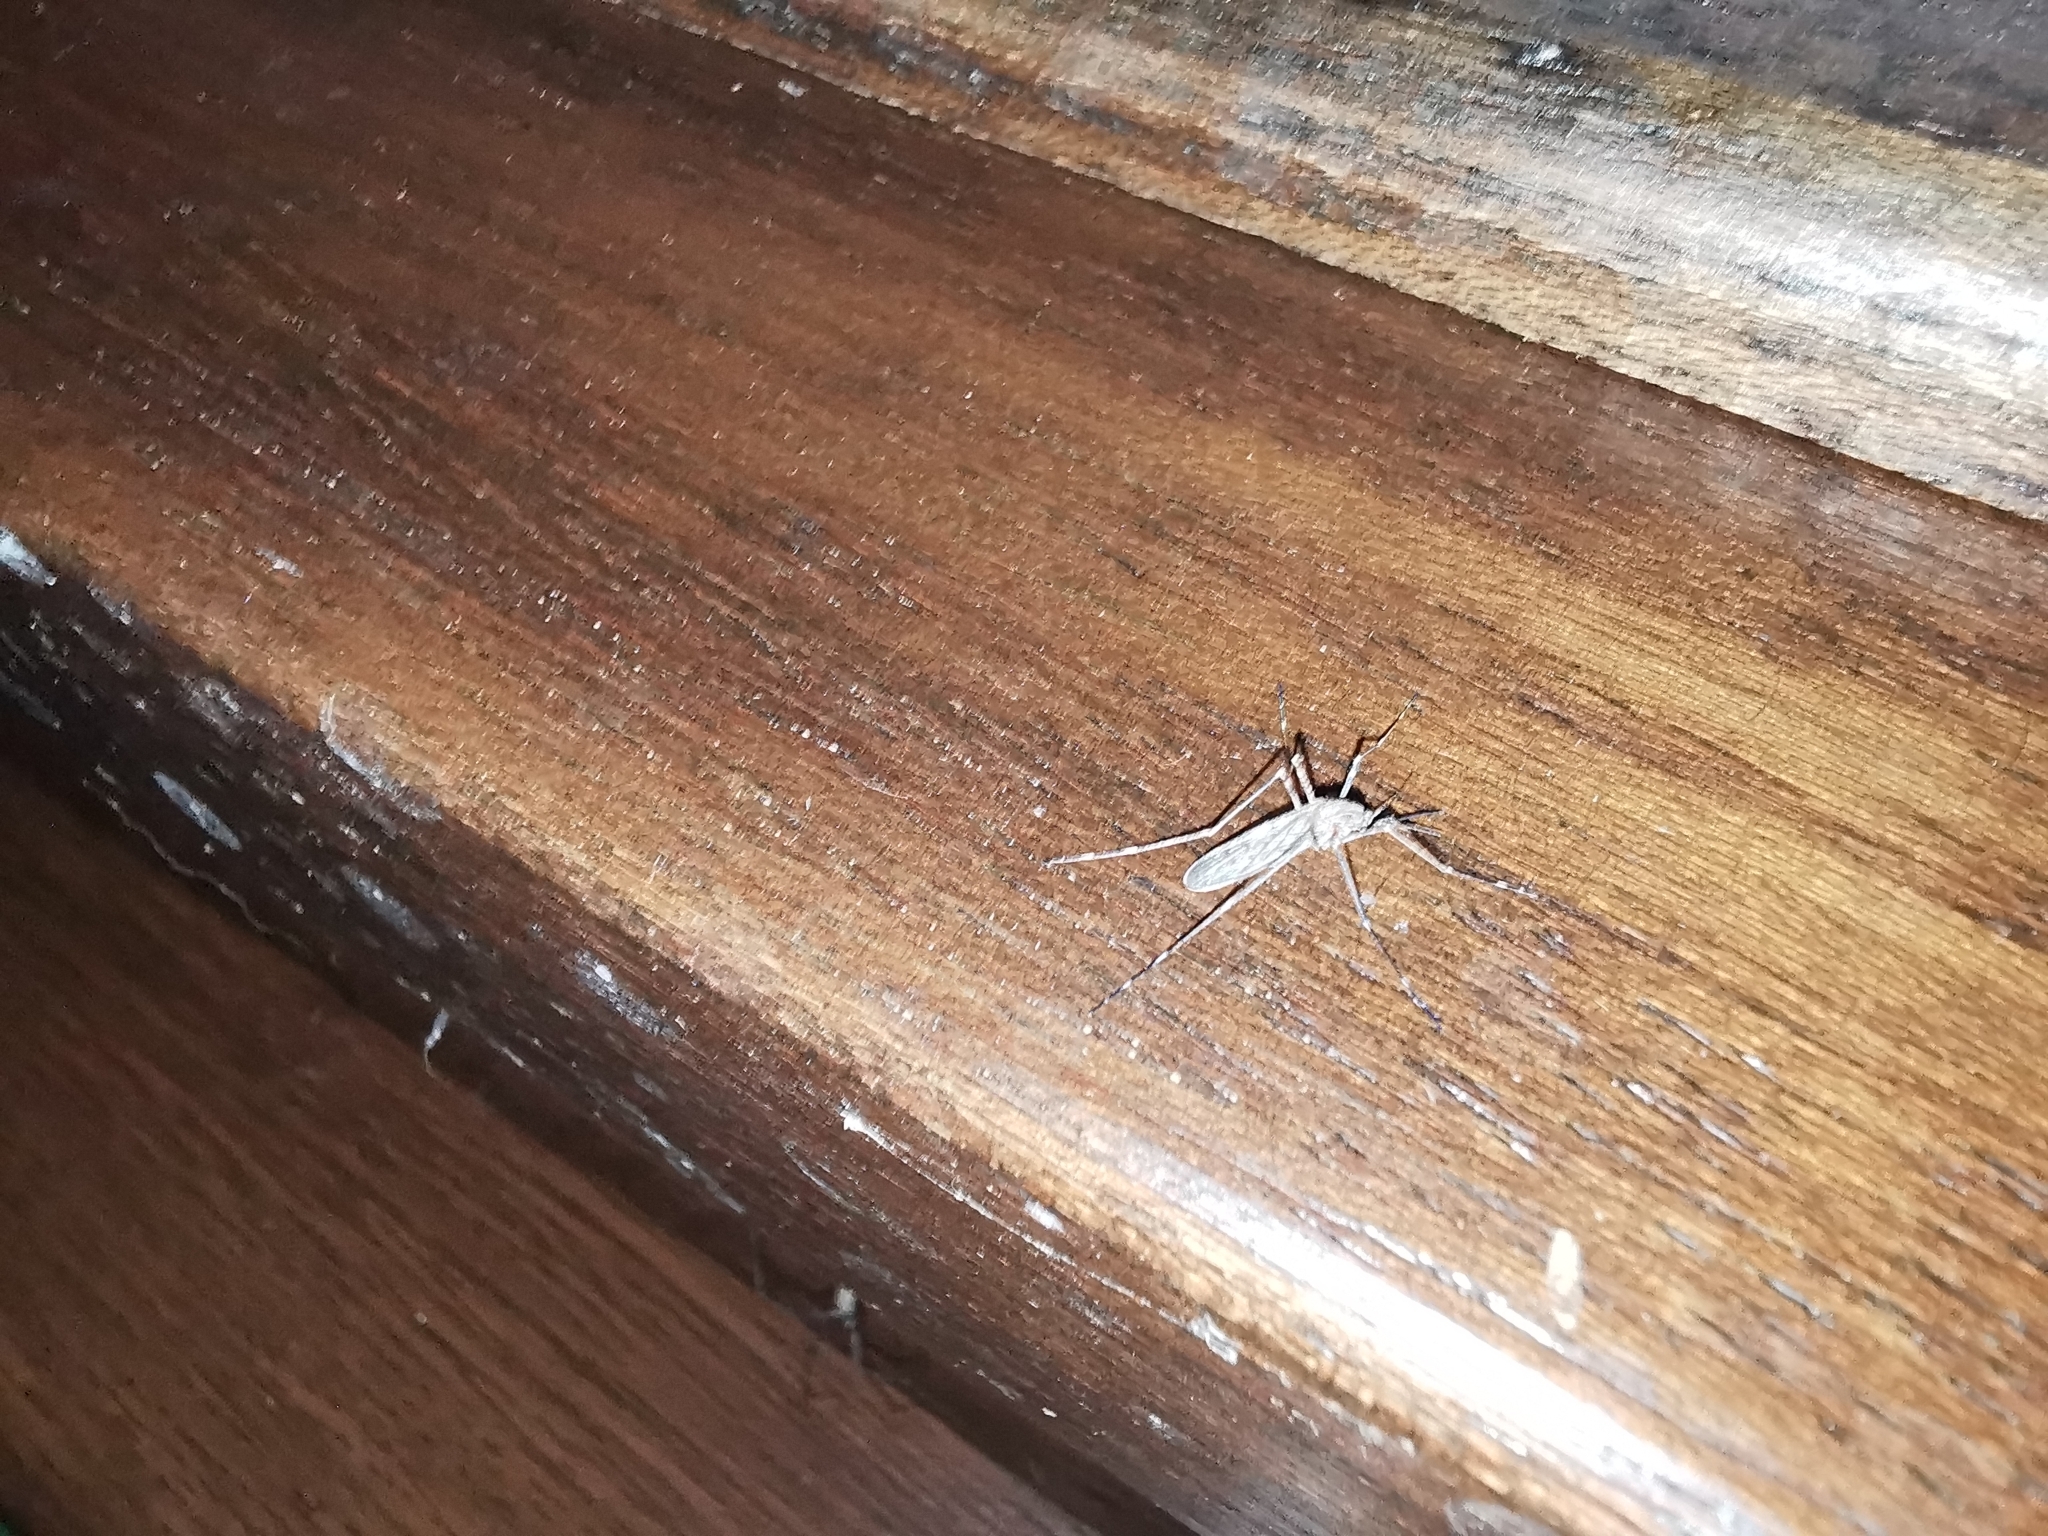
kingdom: Animalia
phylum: Arthropoda
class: Insecta
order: Diptera
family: Culicidae
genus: Culiseta
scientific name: Culiseta longiareolata
